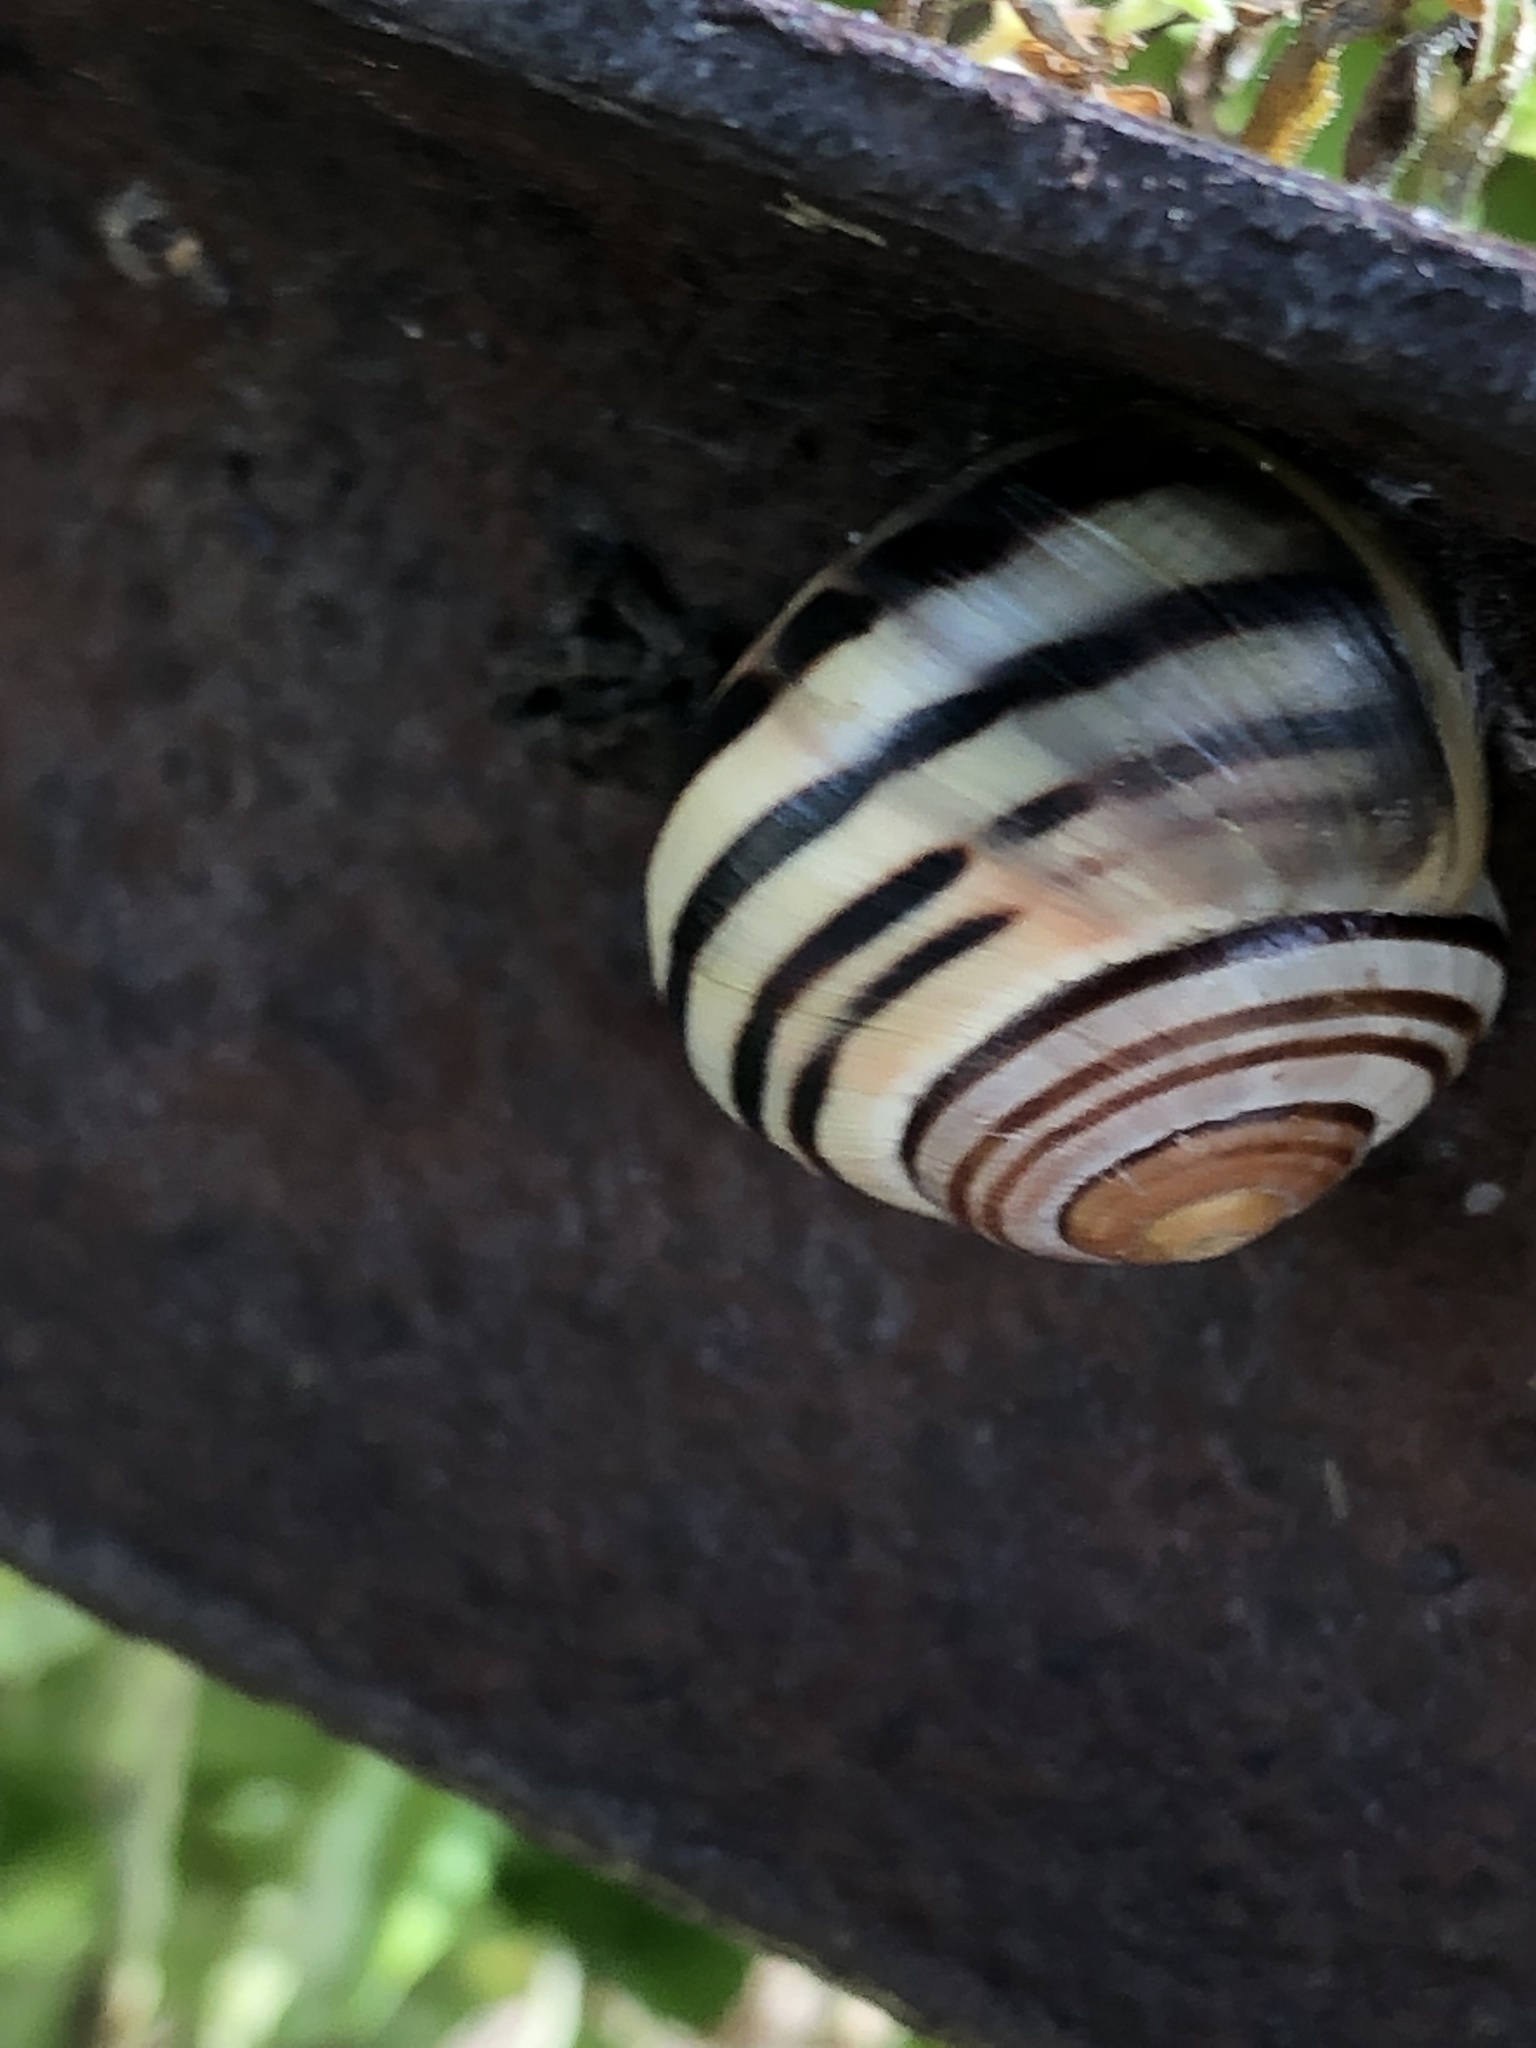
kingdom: Animalia
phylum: Mollusca
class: Gastropoda
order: Stylommatophora
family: Helicidae
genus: Cepaea
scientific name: Cepaea nemoralis
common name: Grovesnail
